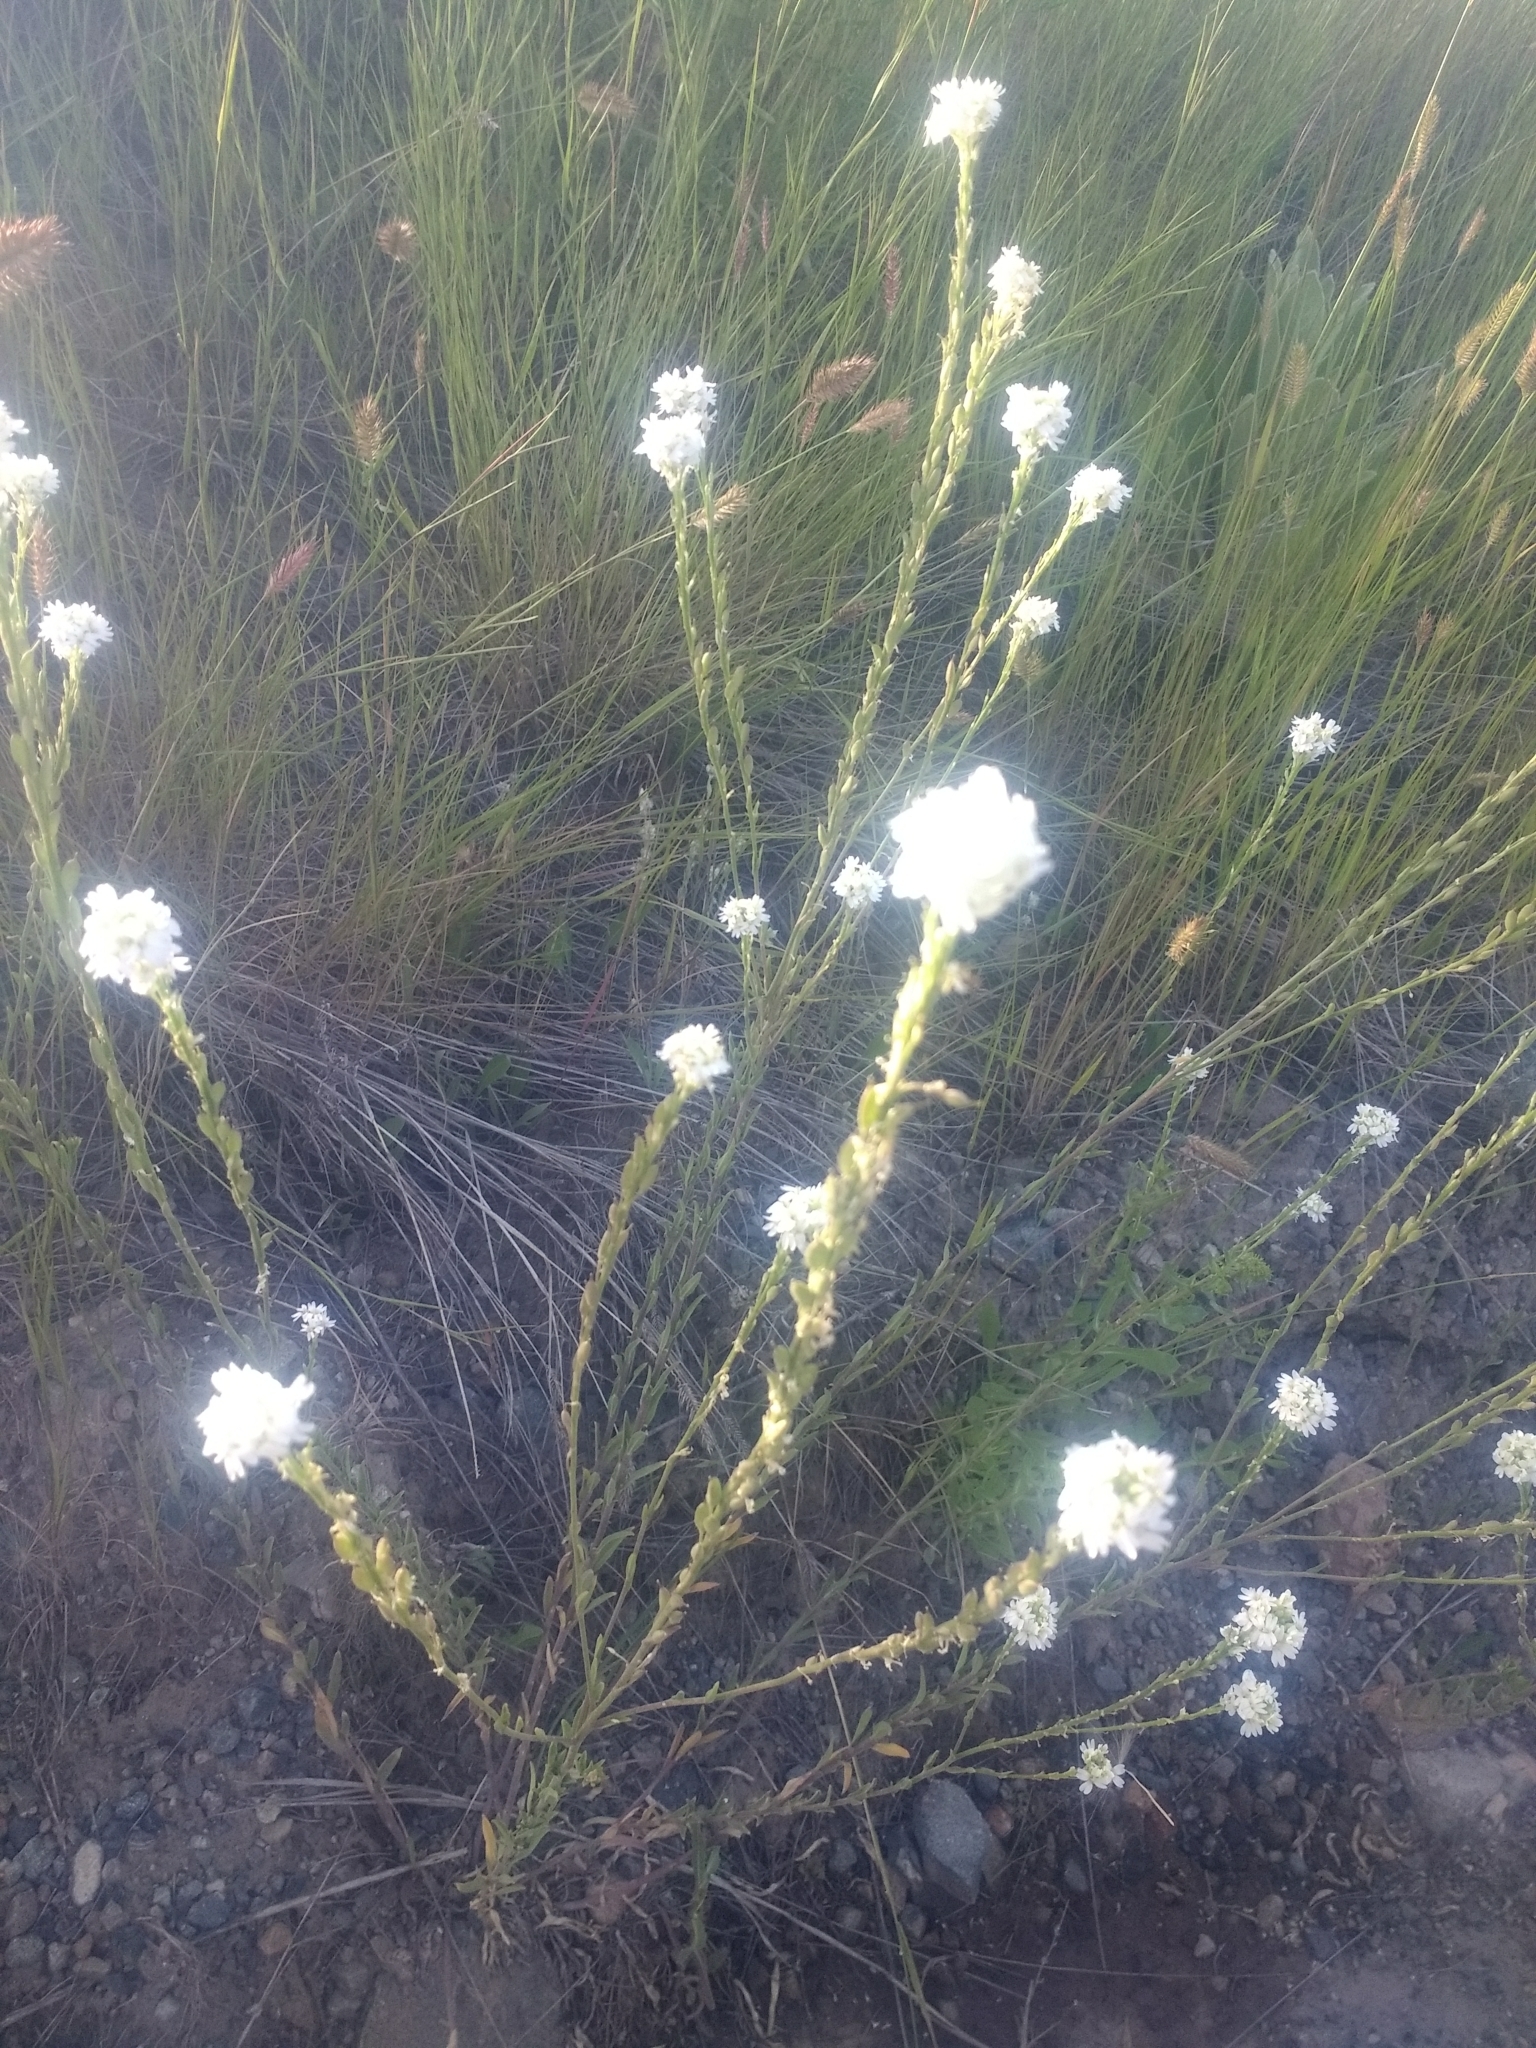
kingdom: Plantae
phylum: Tracheophyta
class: Magnoliopsida
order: Brassicales
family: Brassicaceae
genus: Berteroa
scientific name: Berteroa incana
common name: Hoary alison
